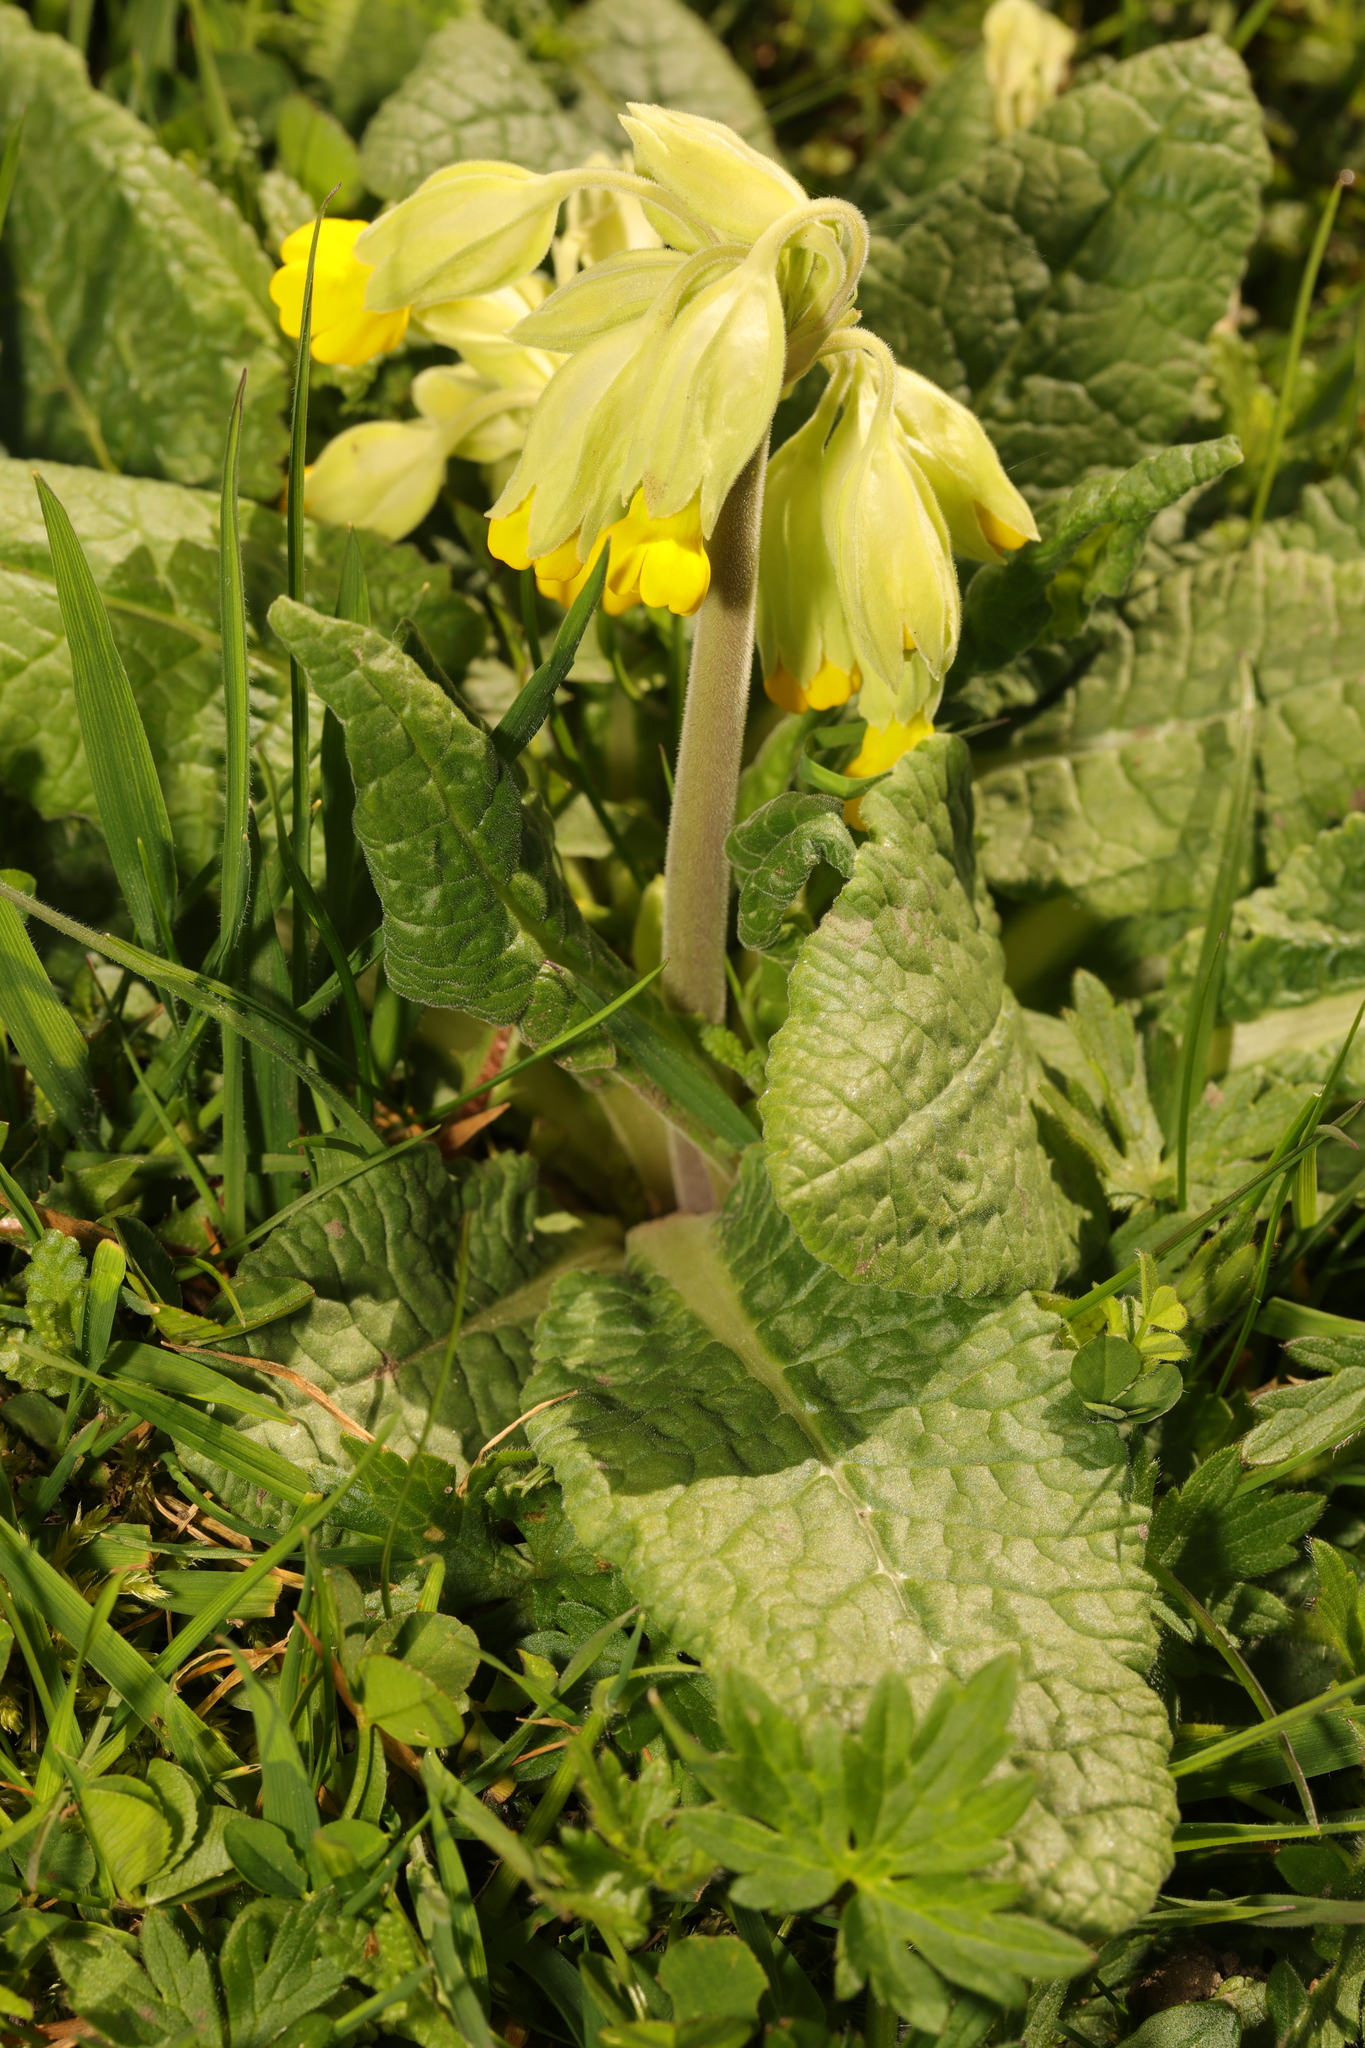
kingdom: Plantae
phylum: Tracheophyta
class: Magnoliopsida
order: Ericales
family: Primulaceae
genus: Primula
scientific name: Primula veris
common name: Cowslip
